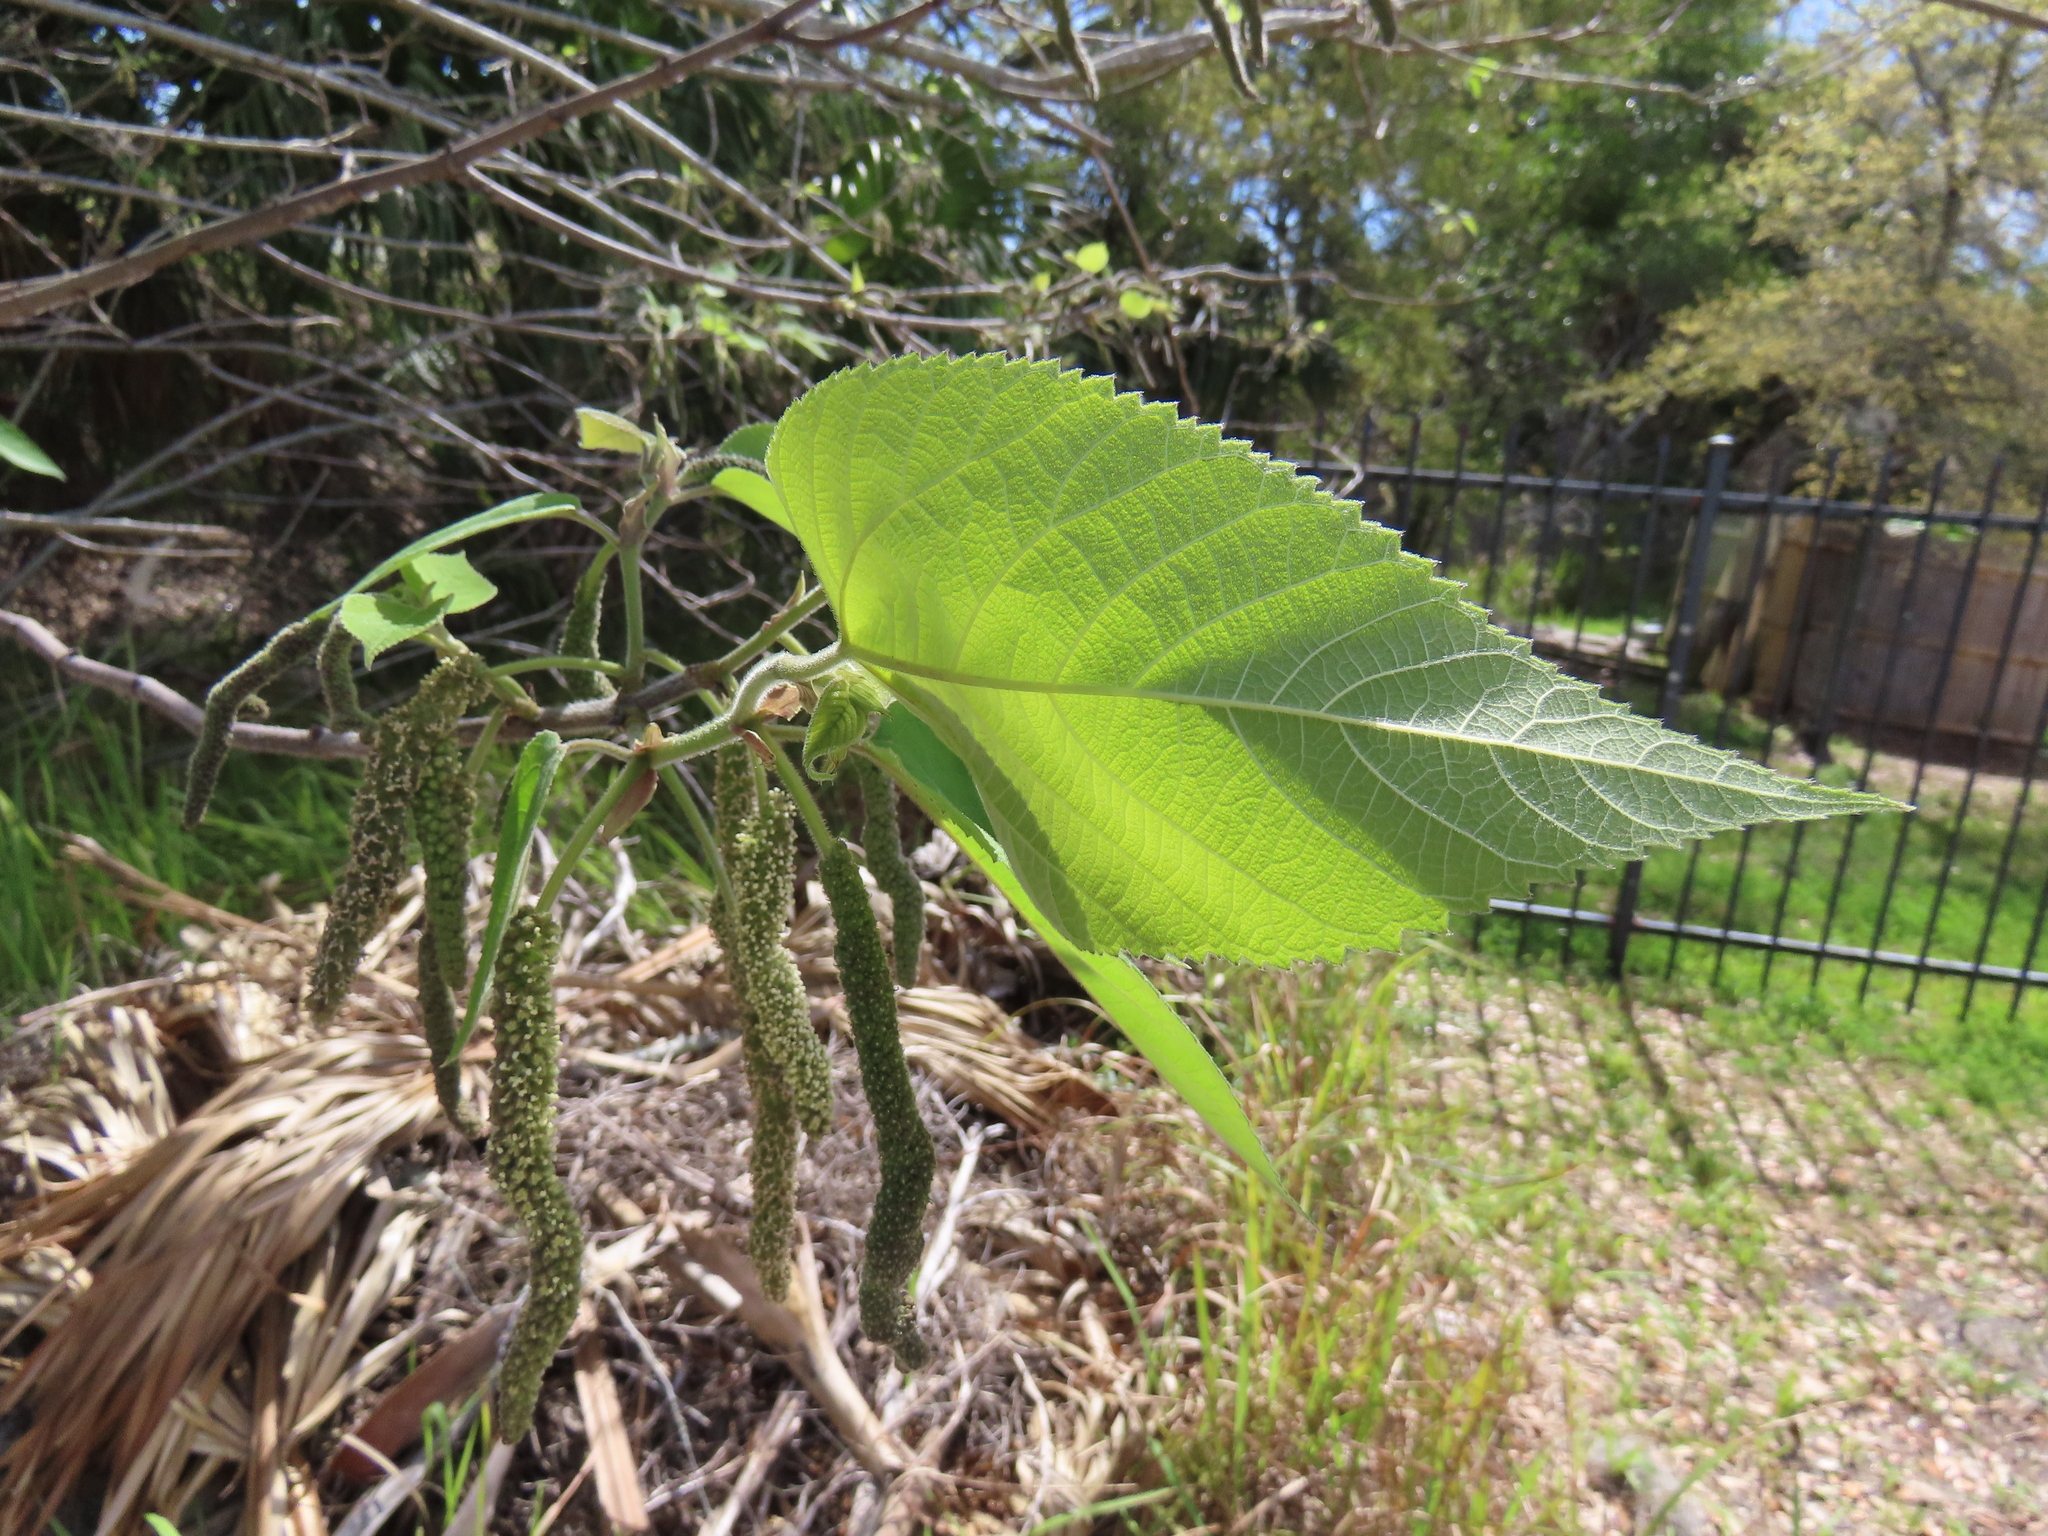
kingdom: Plantae
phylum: Tracheophyta
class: Magnoliopsida
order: Rosales
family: Moraceae
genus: Broussonetia
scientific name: Broussonetia papyrifera
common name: Paper mulberry
